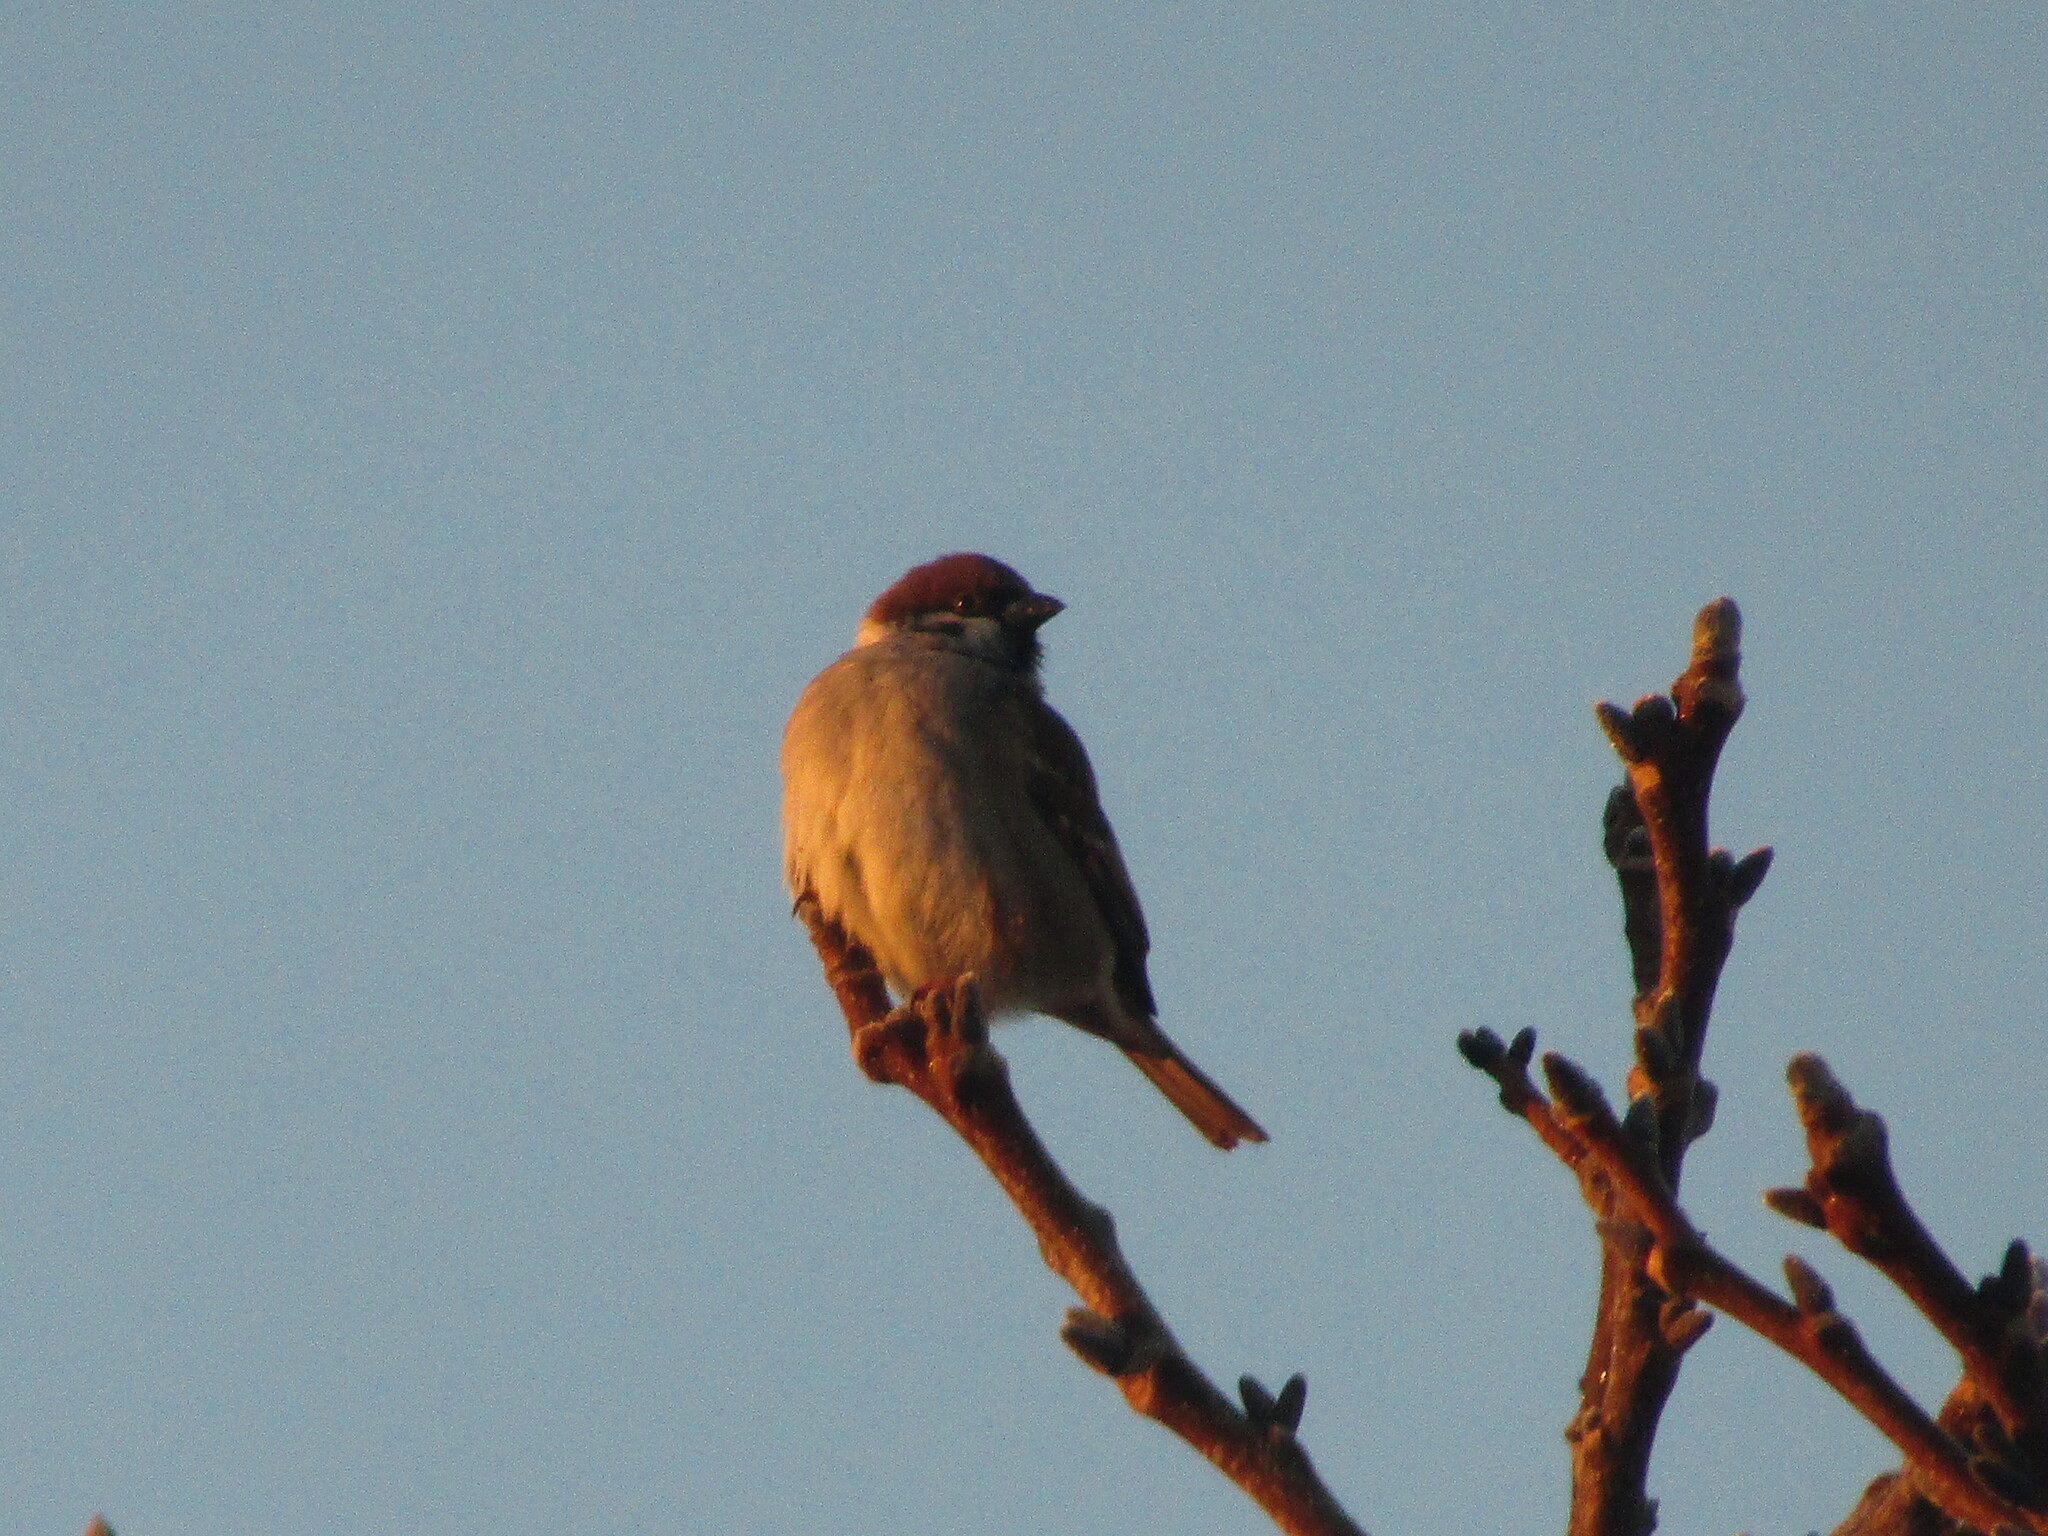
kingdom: Animalia
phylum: Chordata
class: Aves
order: Passeriformes
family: Passeridae
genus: Passer
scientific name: Passer montanus
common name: Eurasian tree sparrow
